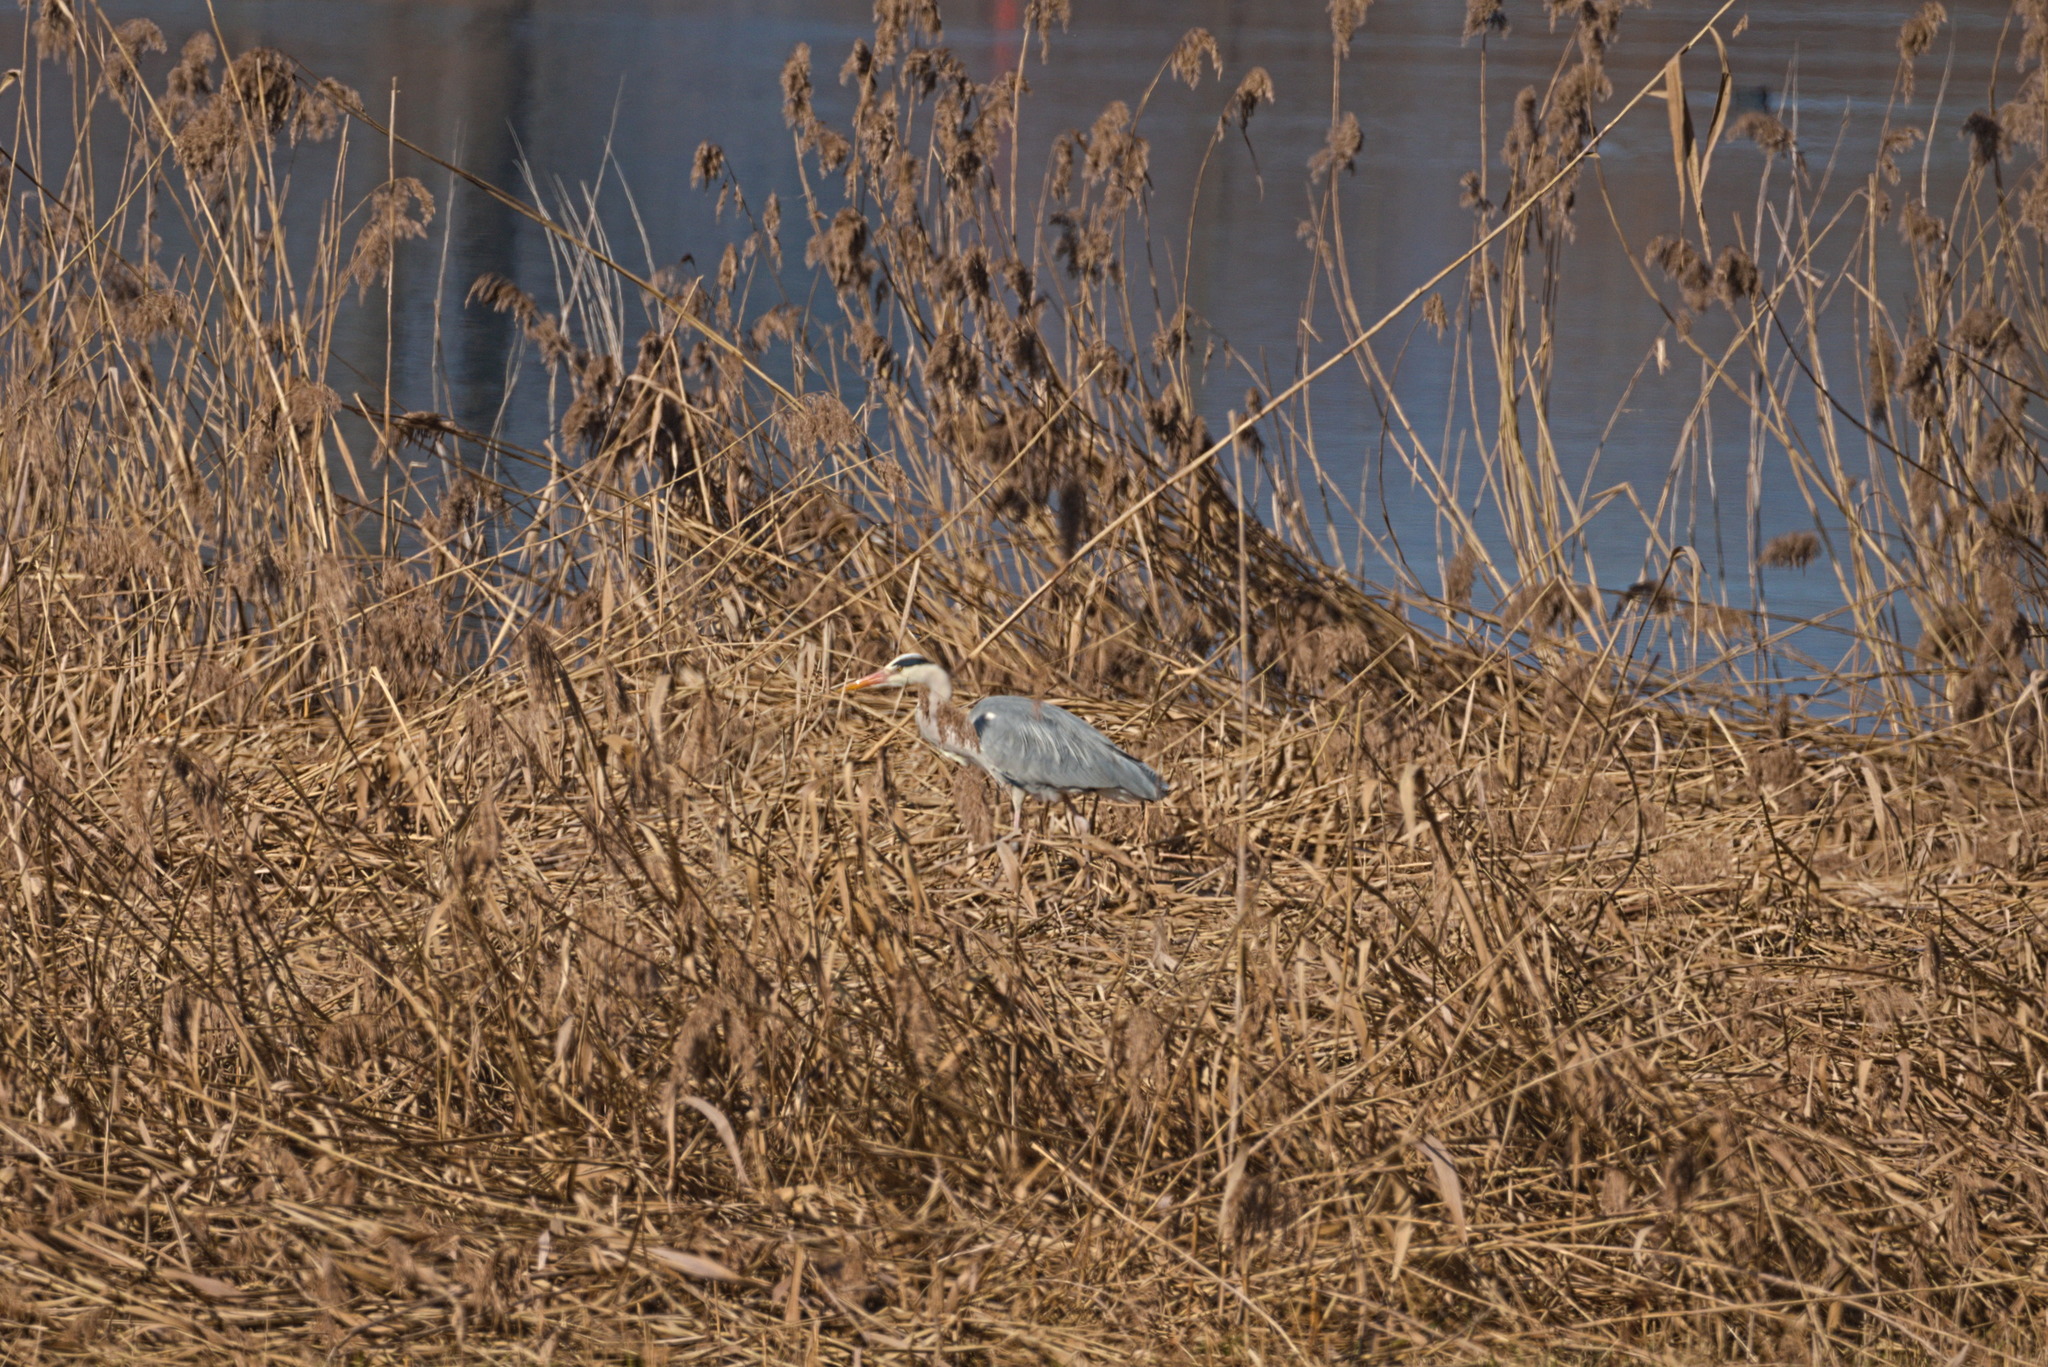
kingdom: Animalia
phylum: Chordata
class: Aves
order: Pelecaniformes
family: Ardeidae
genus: Ardea
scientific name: Ardea cinerea
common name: Grey heron
